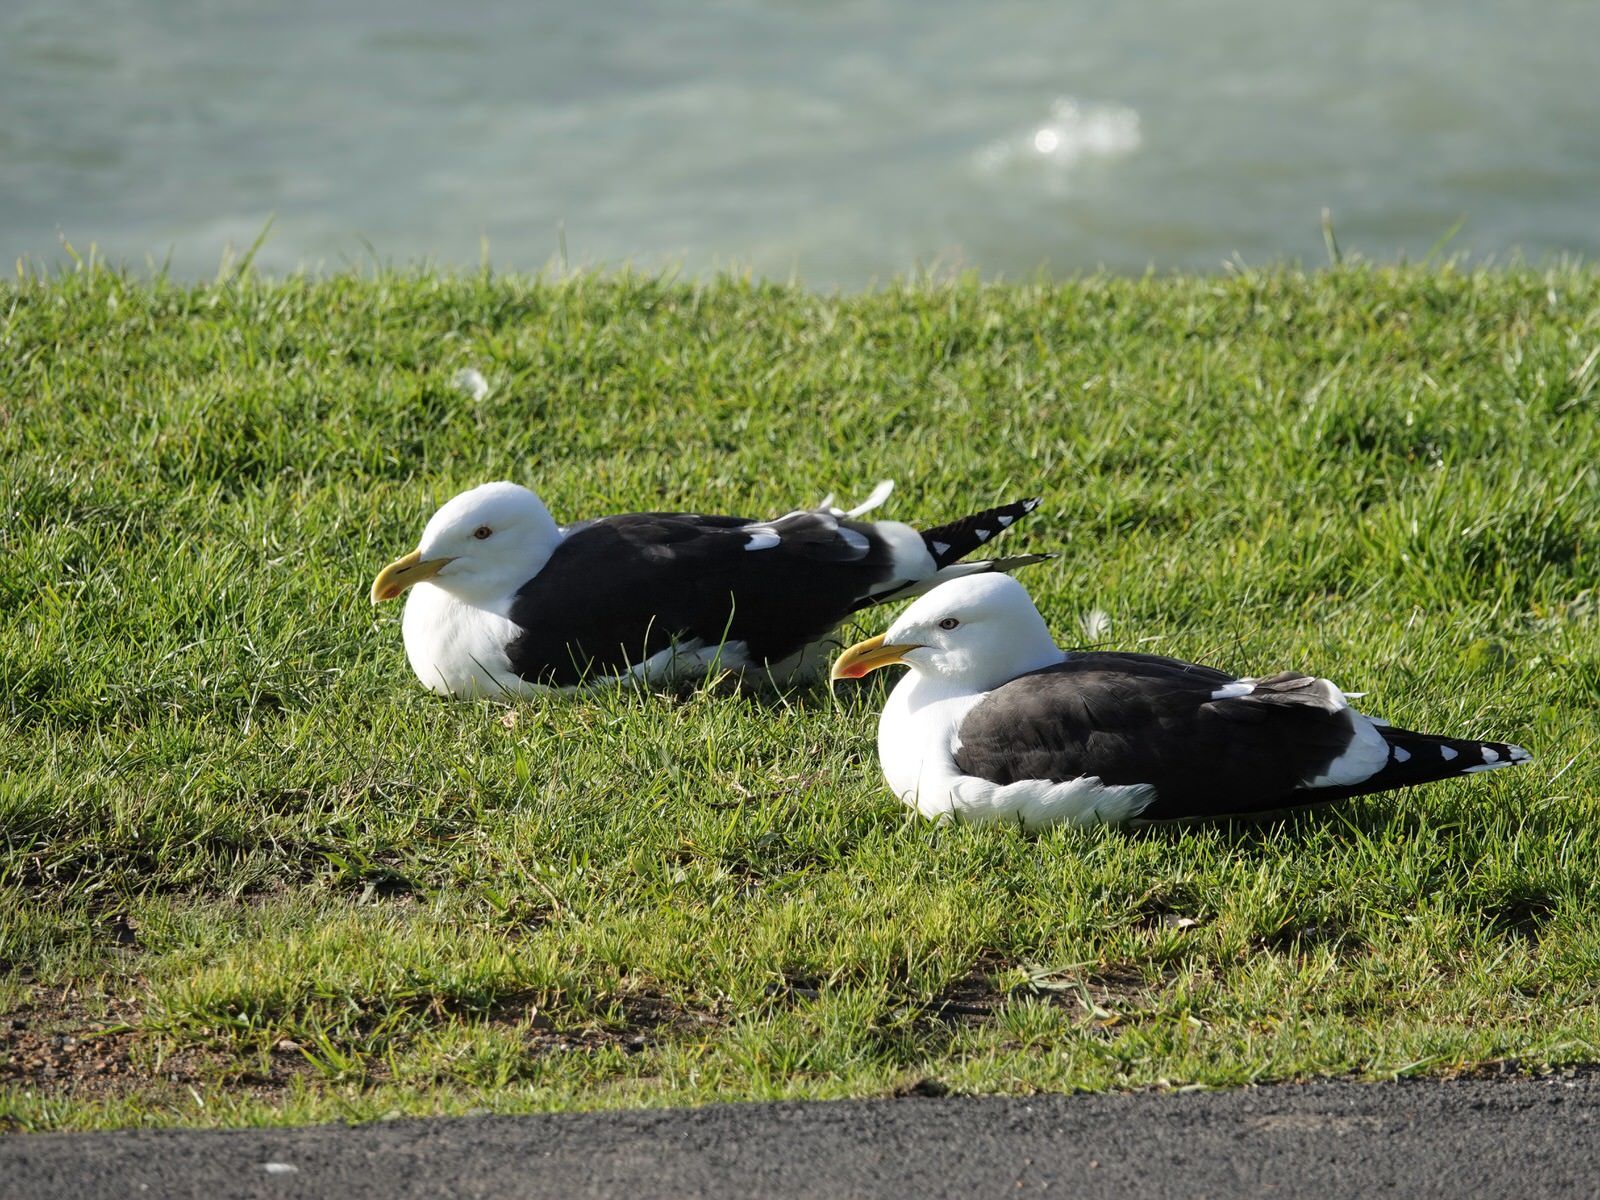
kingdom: Animalia
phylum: Chordata
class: Aves
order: Charadriiformes
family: Laridae
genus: Larus
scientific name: Larus dominicanus
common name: Kelp gull
